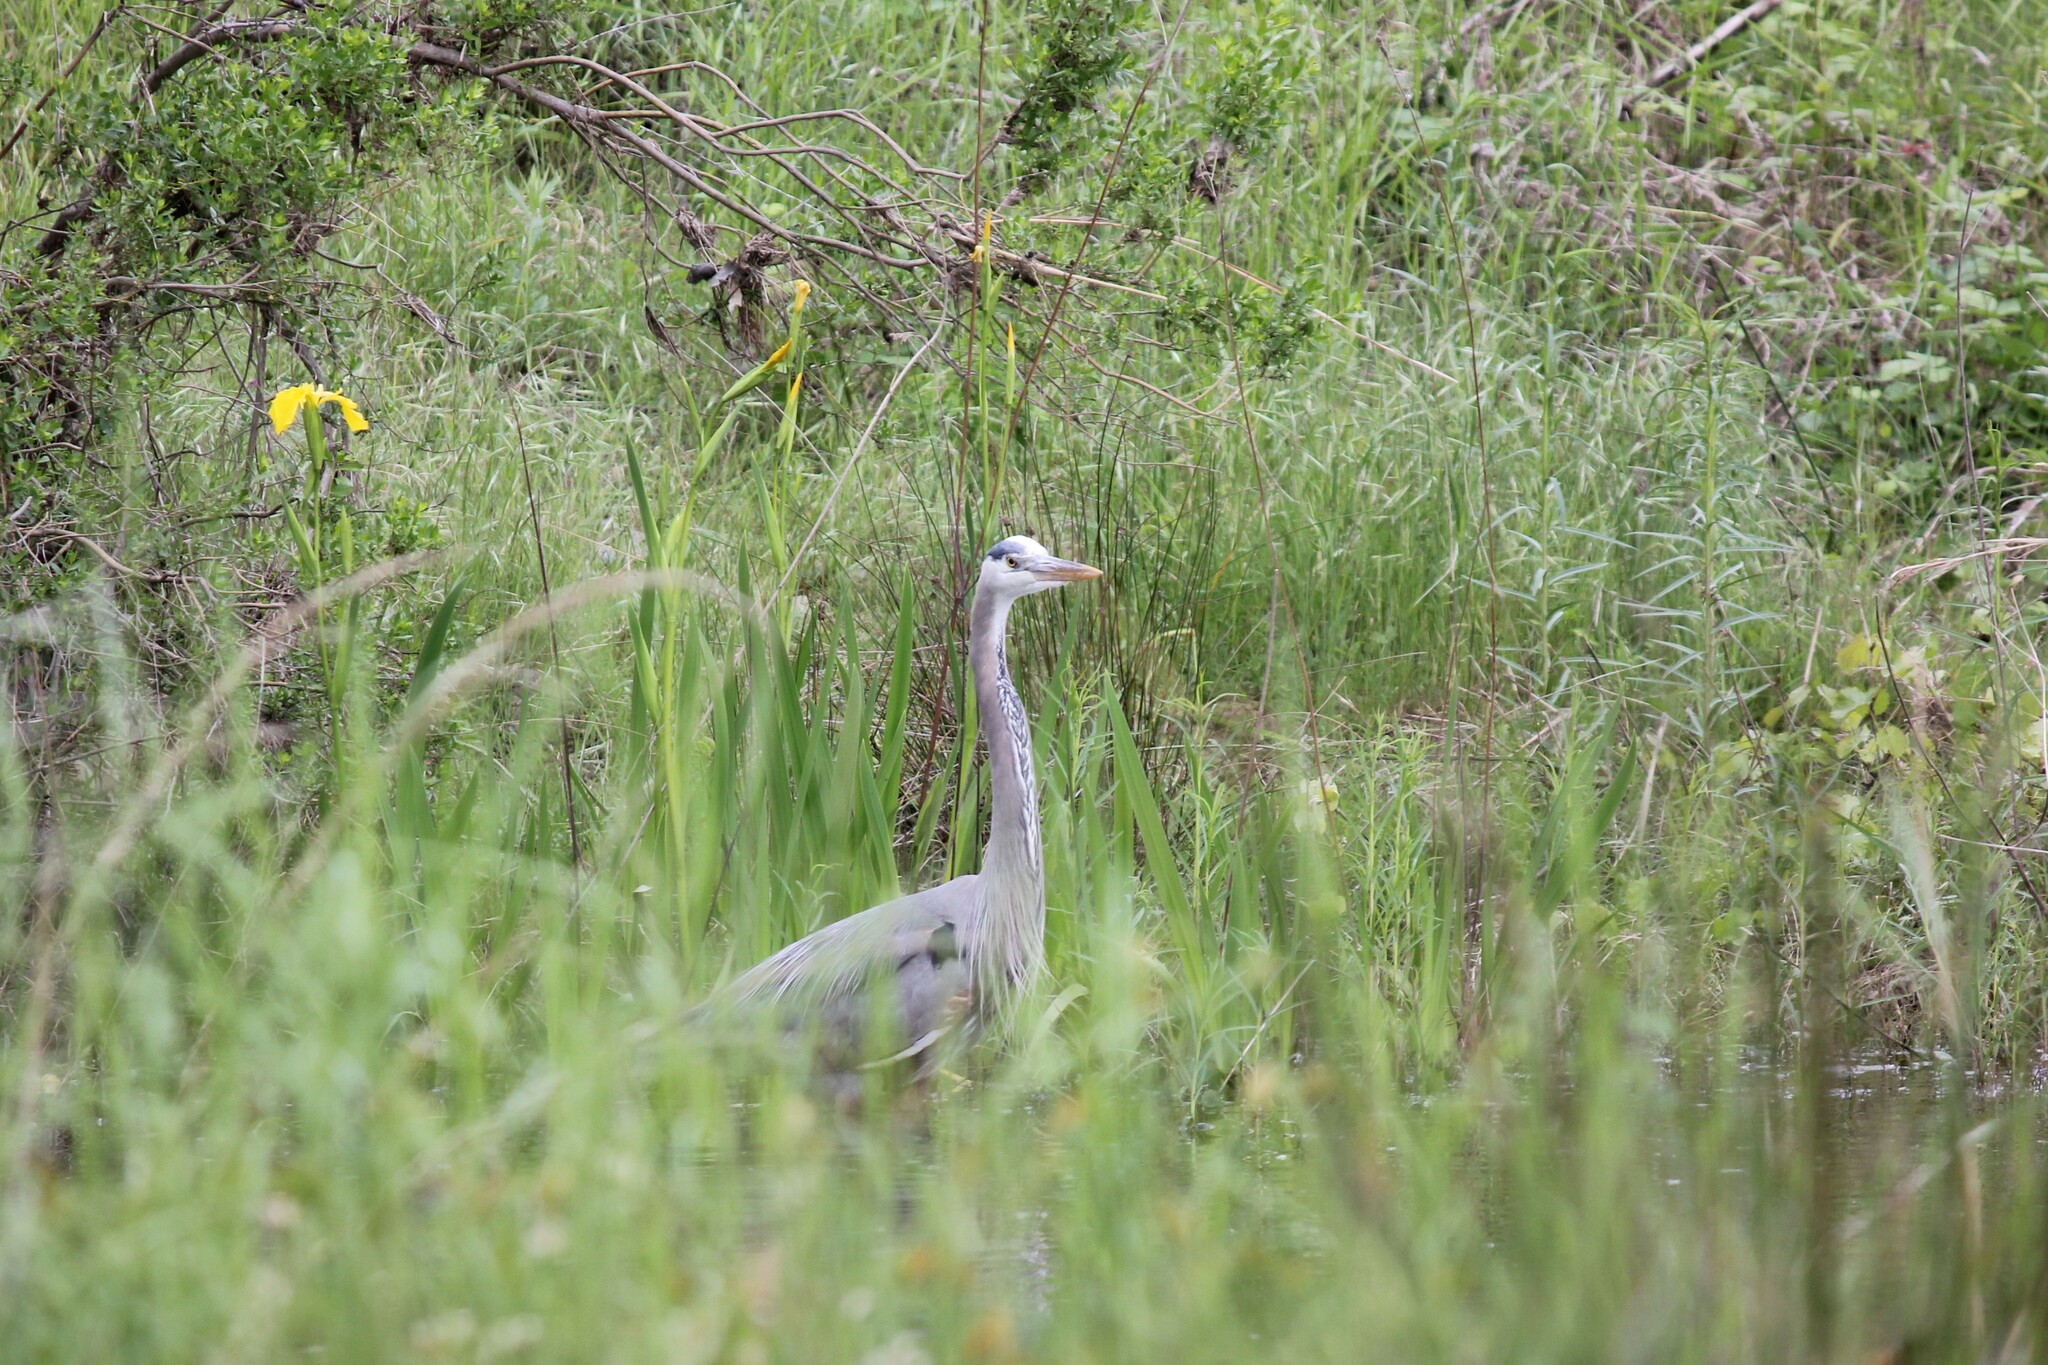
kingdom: Animalia
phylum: Chordata
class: Aves
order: Pelecaniformes
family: Ardeidae
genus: Ardea
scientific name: Ardea herodias
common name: Great blue heron
